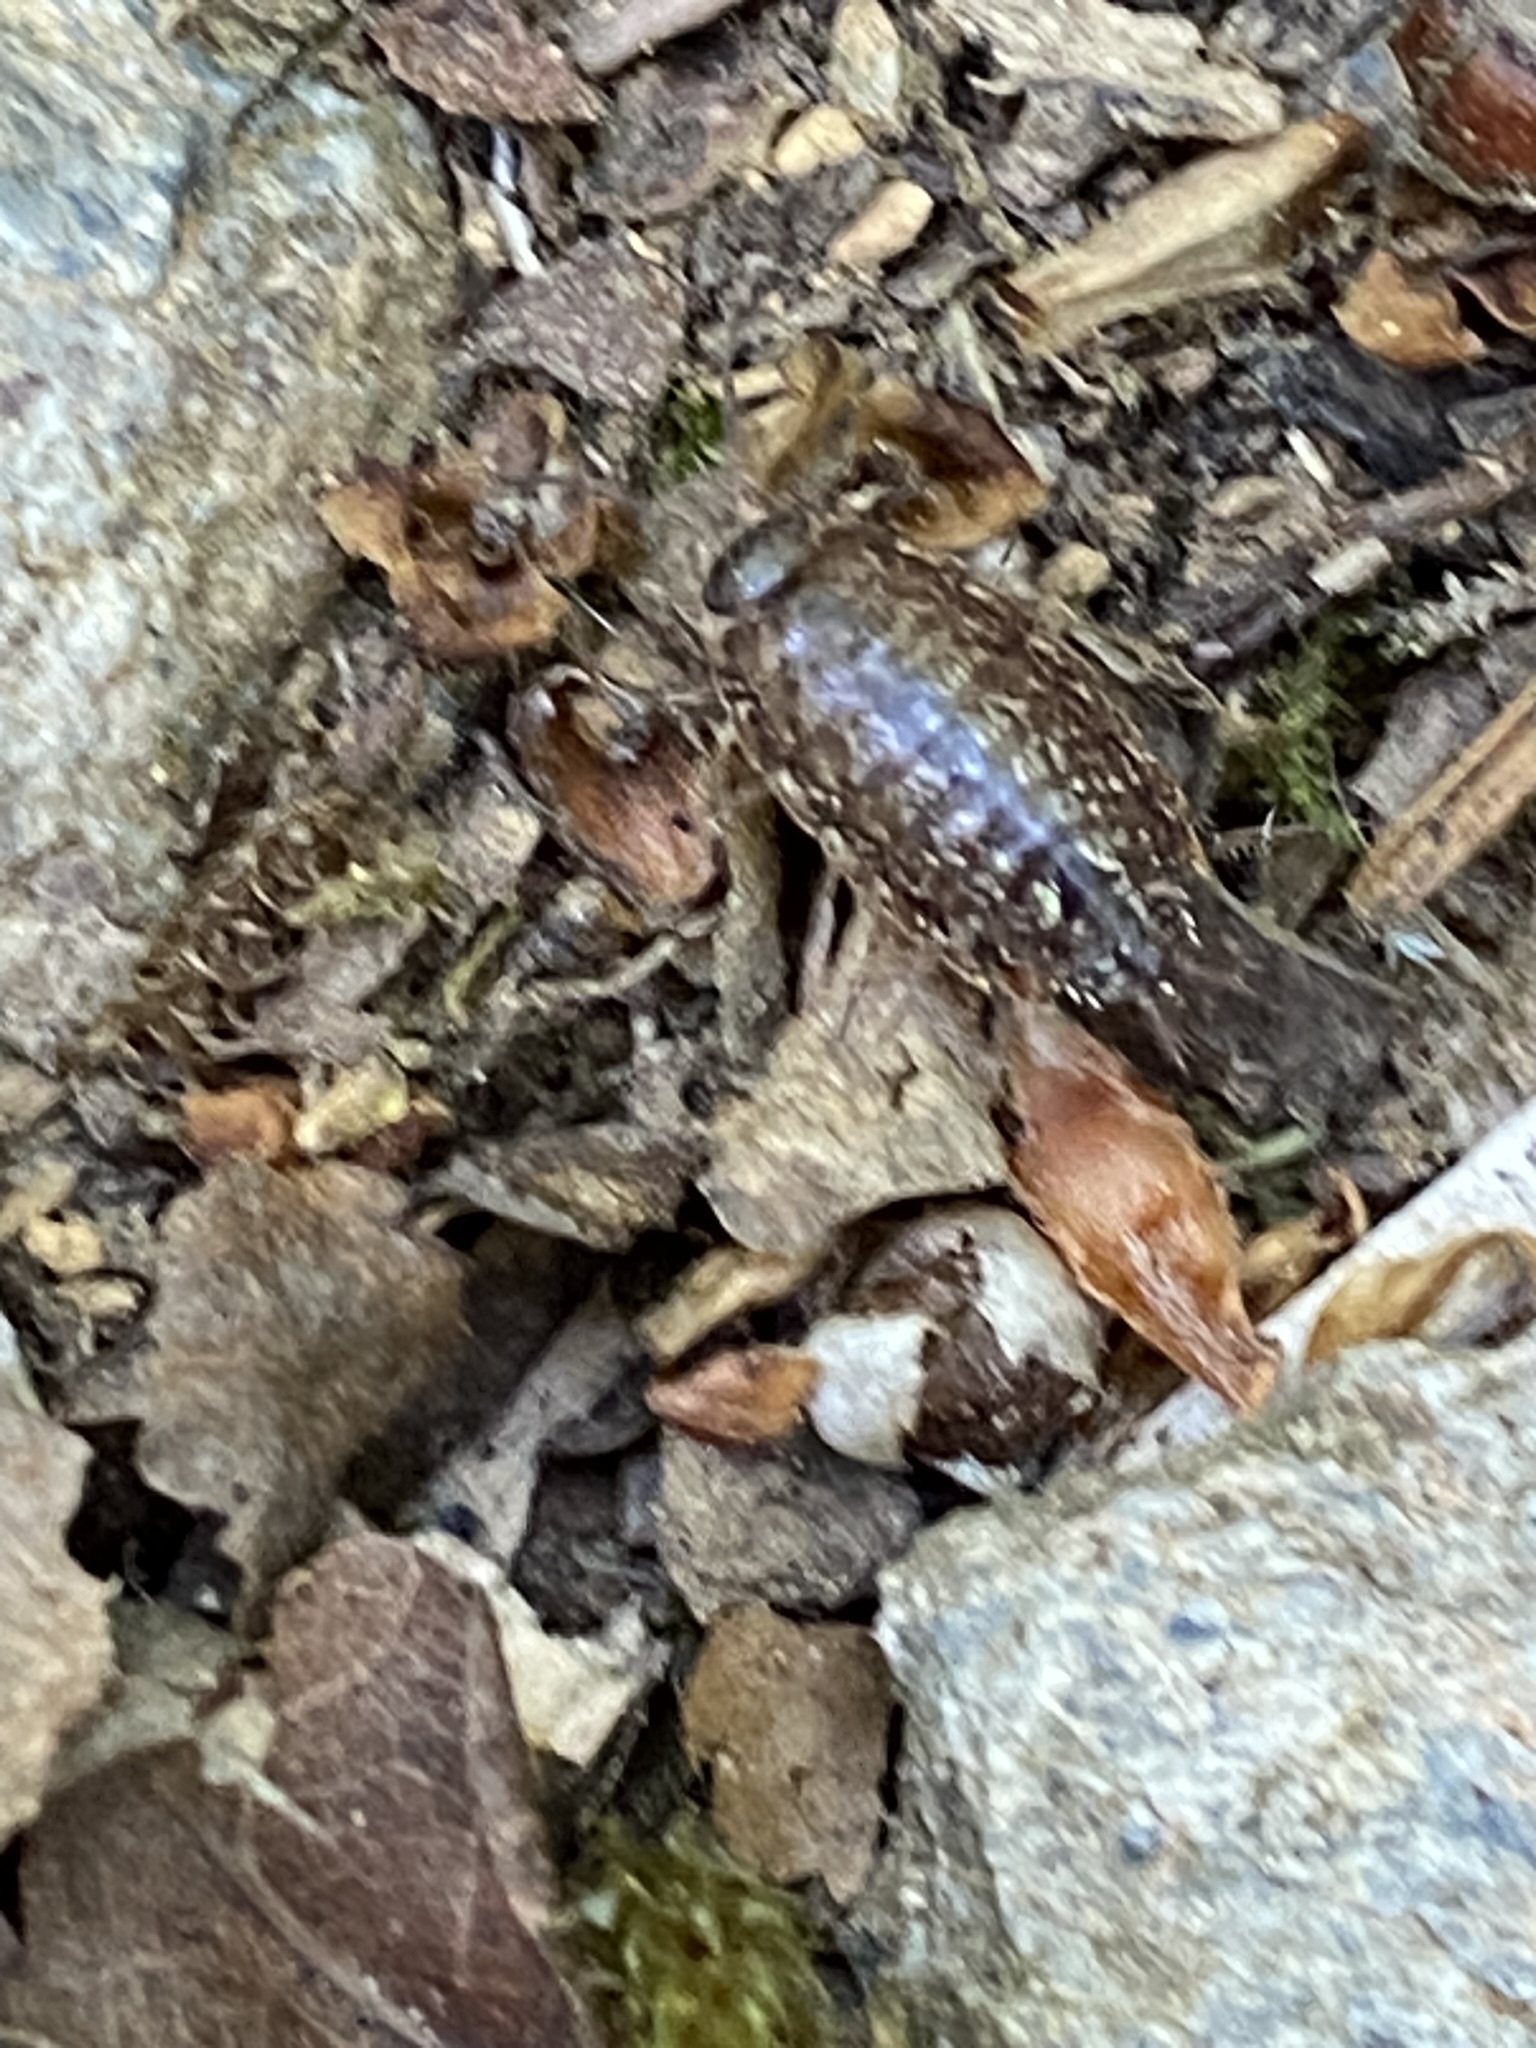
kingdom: Animalia
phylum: Arthropoda
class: Malacostraca
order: Isopoda
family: Philosciidae
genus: Philoscia
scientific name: Philoscia
